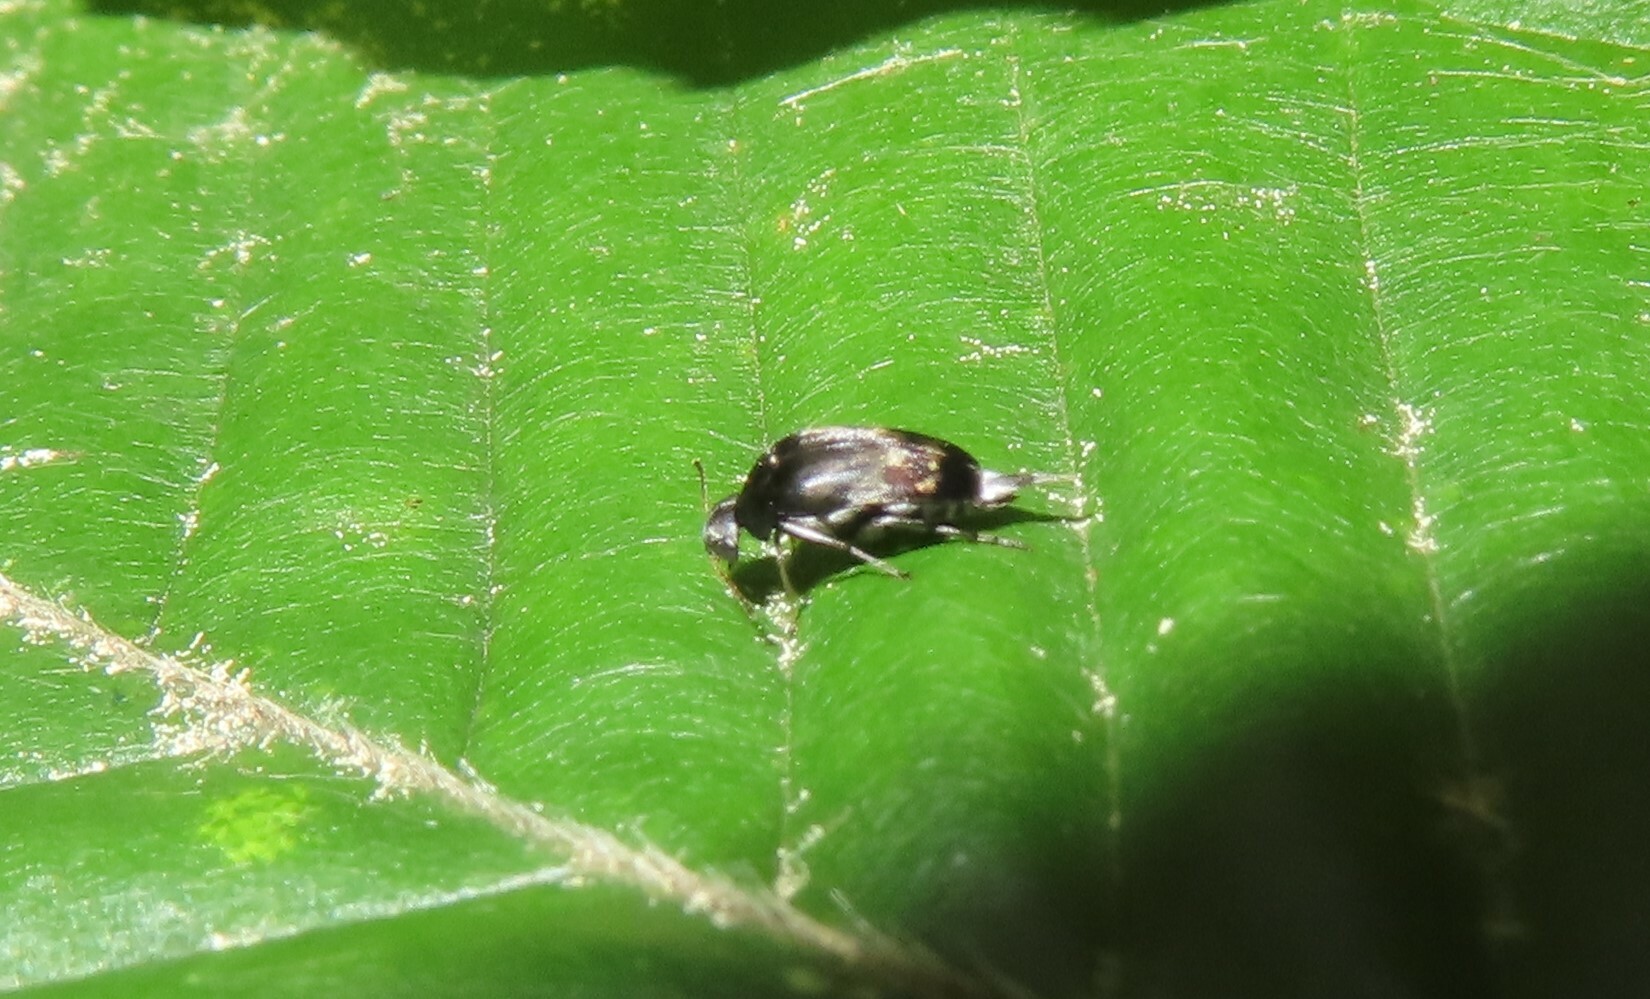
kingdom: Animalia
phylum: Arthropoda
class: Insecta
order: Coleoptera
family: Mordellidae
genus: Paramordellaria
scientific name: Paramordellaria triloba
